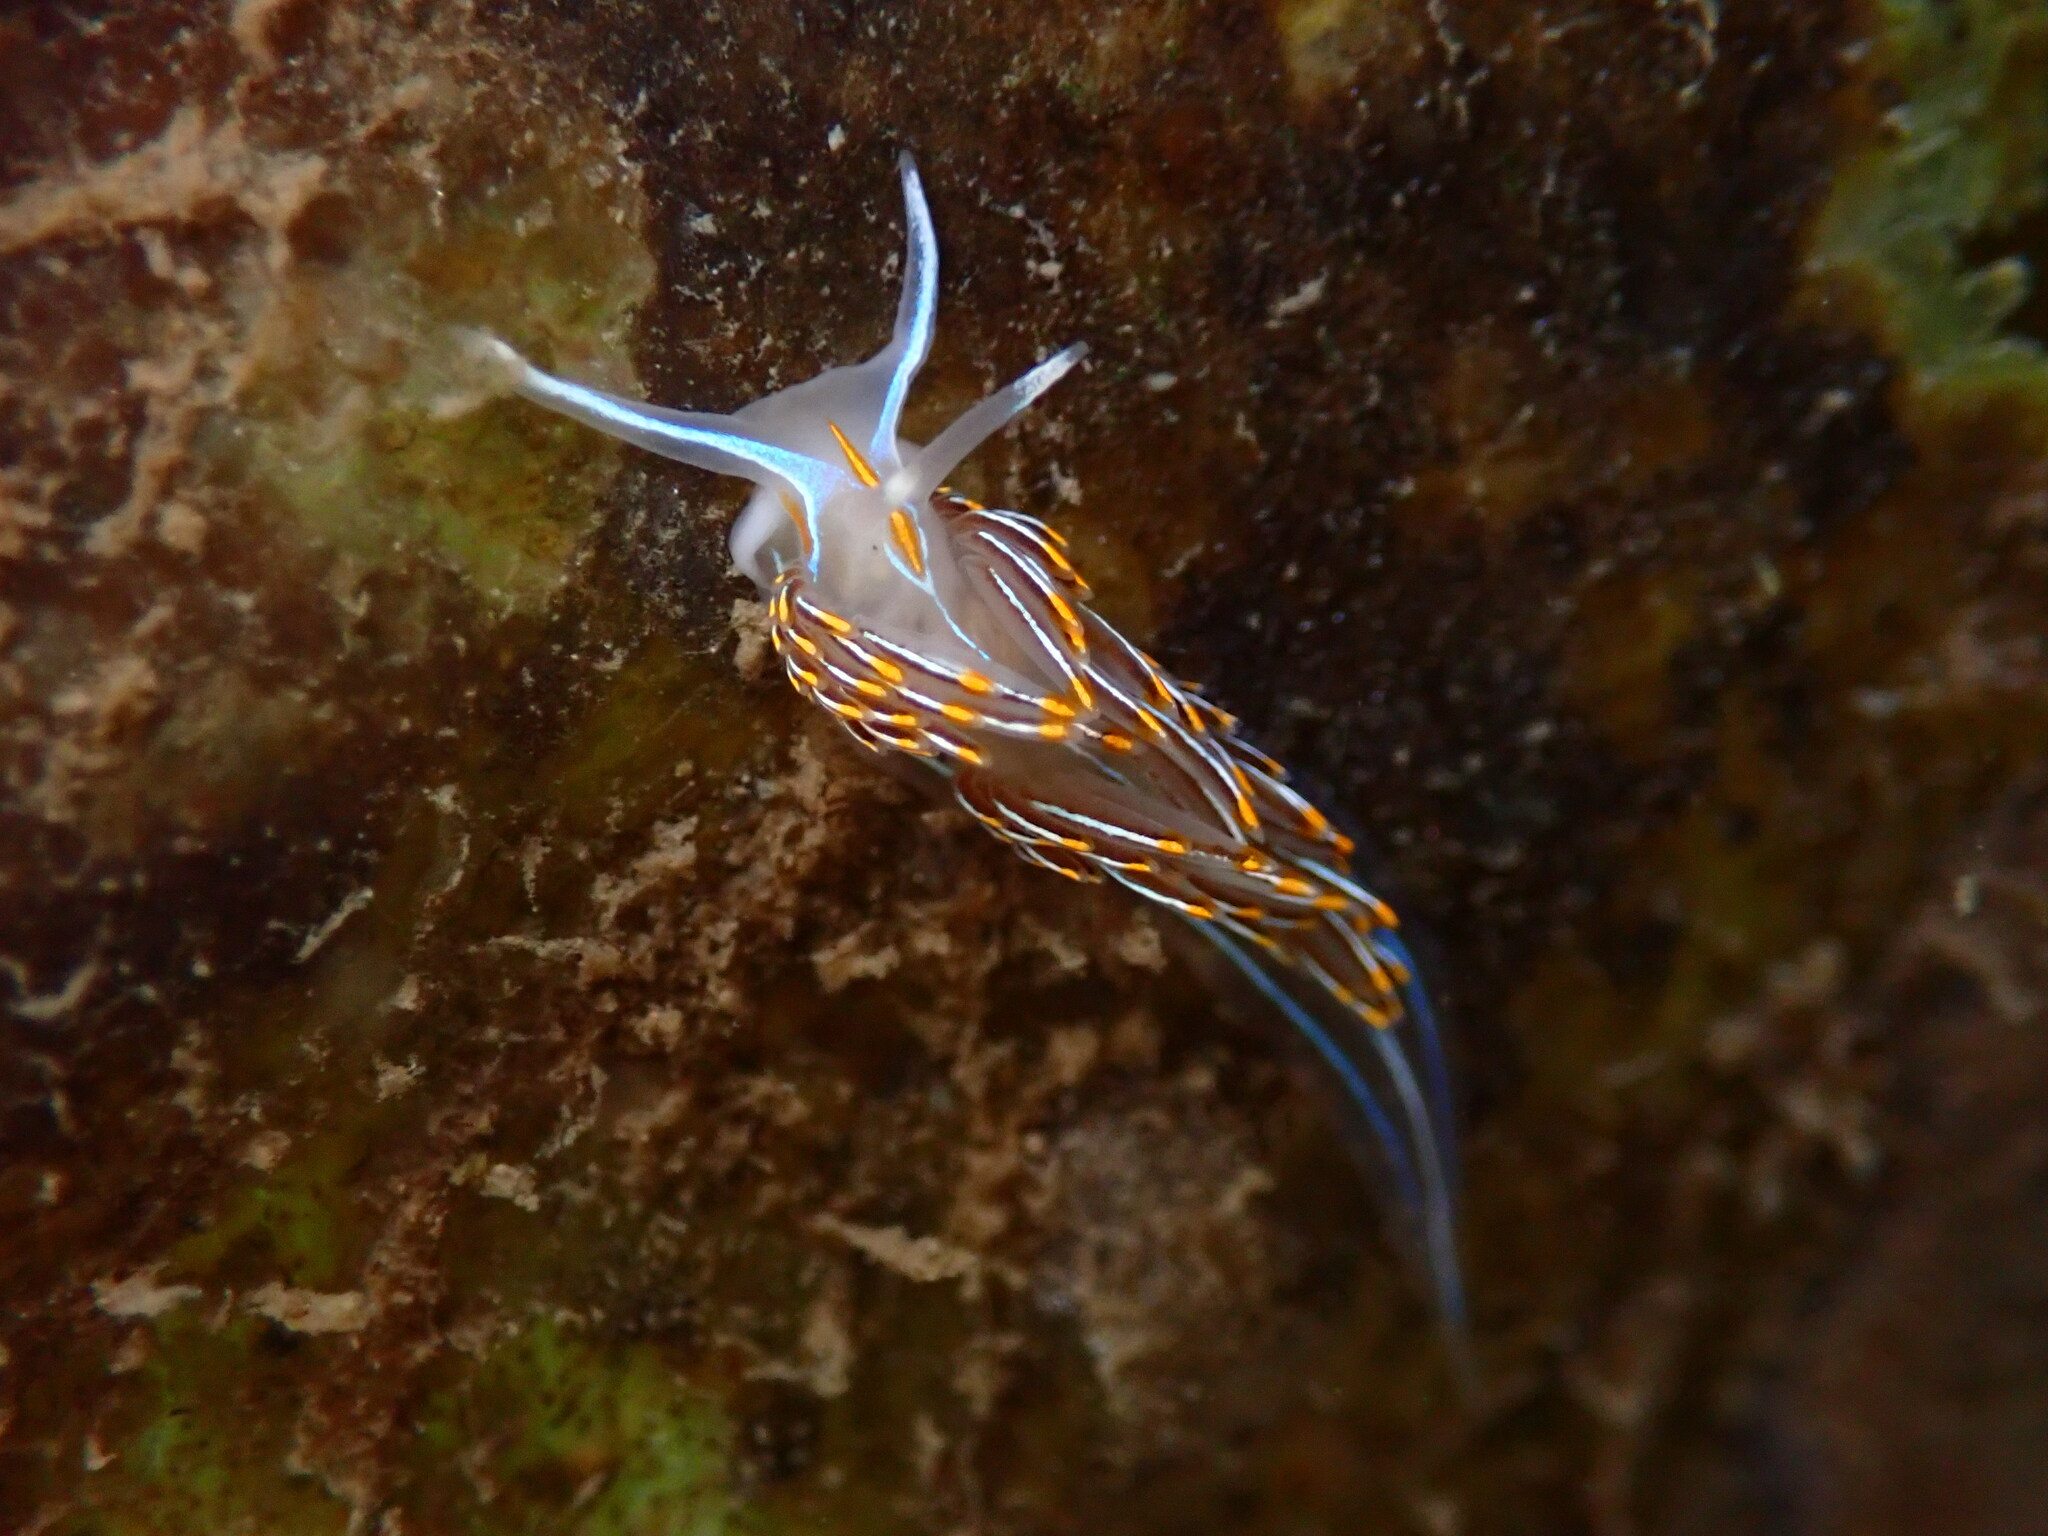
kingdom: Animalia
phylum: Mollusca
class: Gastropoda
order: Nudibranchia
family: Myrrhinidae
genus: Hermissenda
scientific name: Hermissenda crassicornis
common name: Hermissenda
